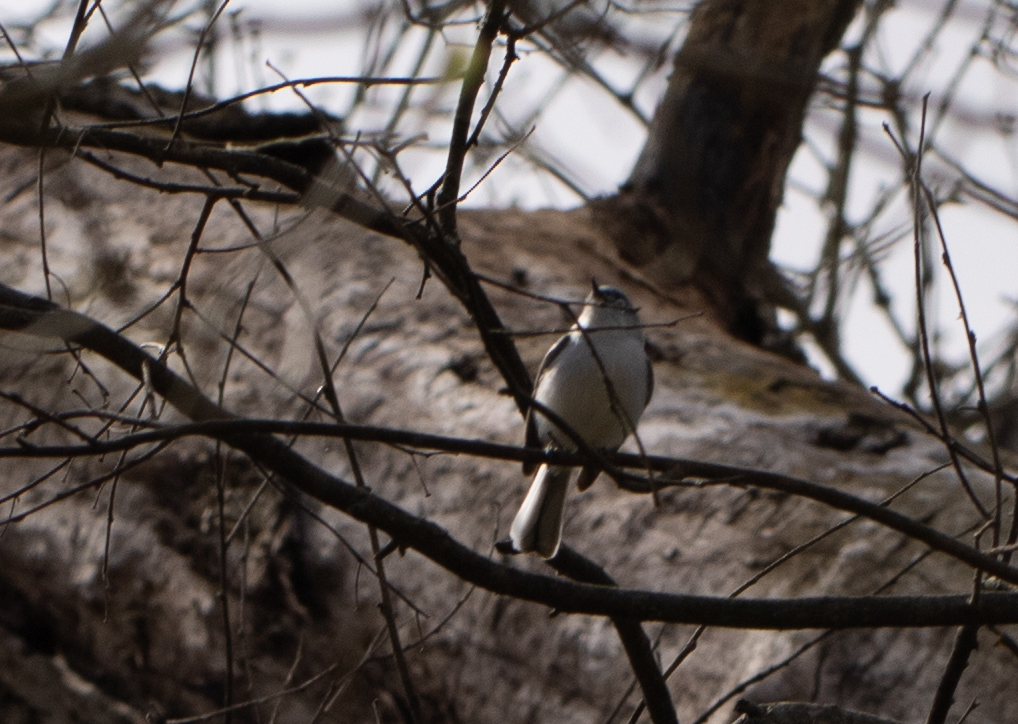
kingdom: Animalia
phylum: Chordata
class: Aves
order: Passeriformes
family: Polioptilidae
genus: Polioptila
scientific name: Polioptila caerulea
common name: Blue-gray gnatcatcher
